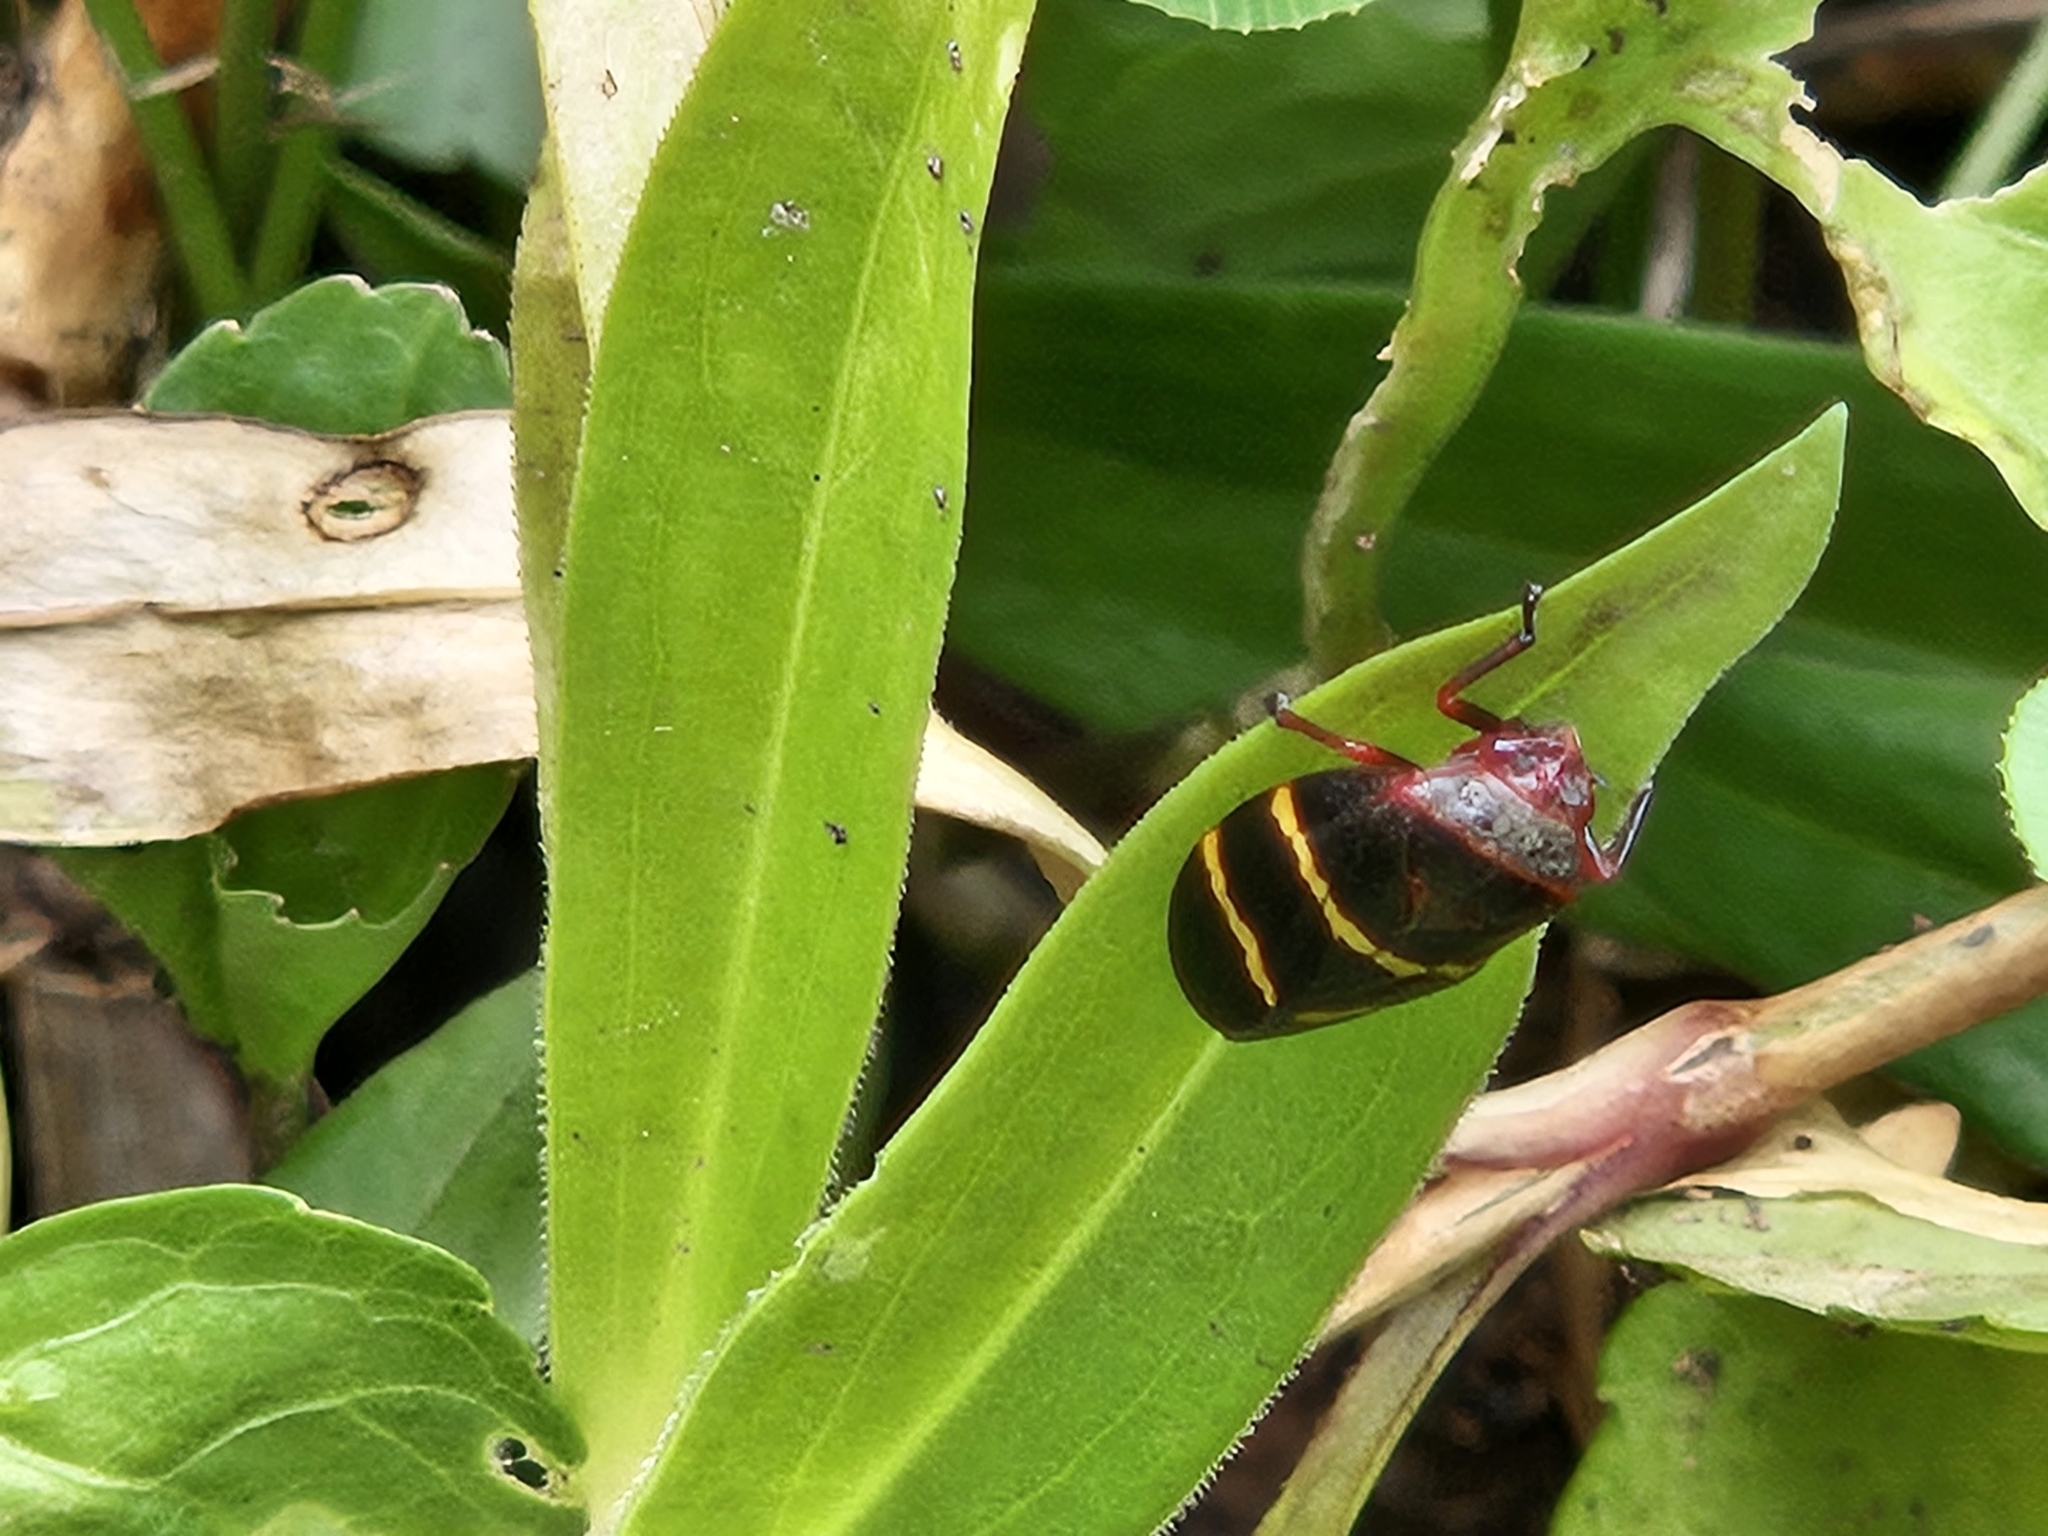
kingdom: Animalia
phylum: Arthropoda
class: Insecta
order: Hemiptera
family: Cercopidae
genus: Prosapia
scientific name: Prosapia bicincta
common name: Twolined spittlebug
